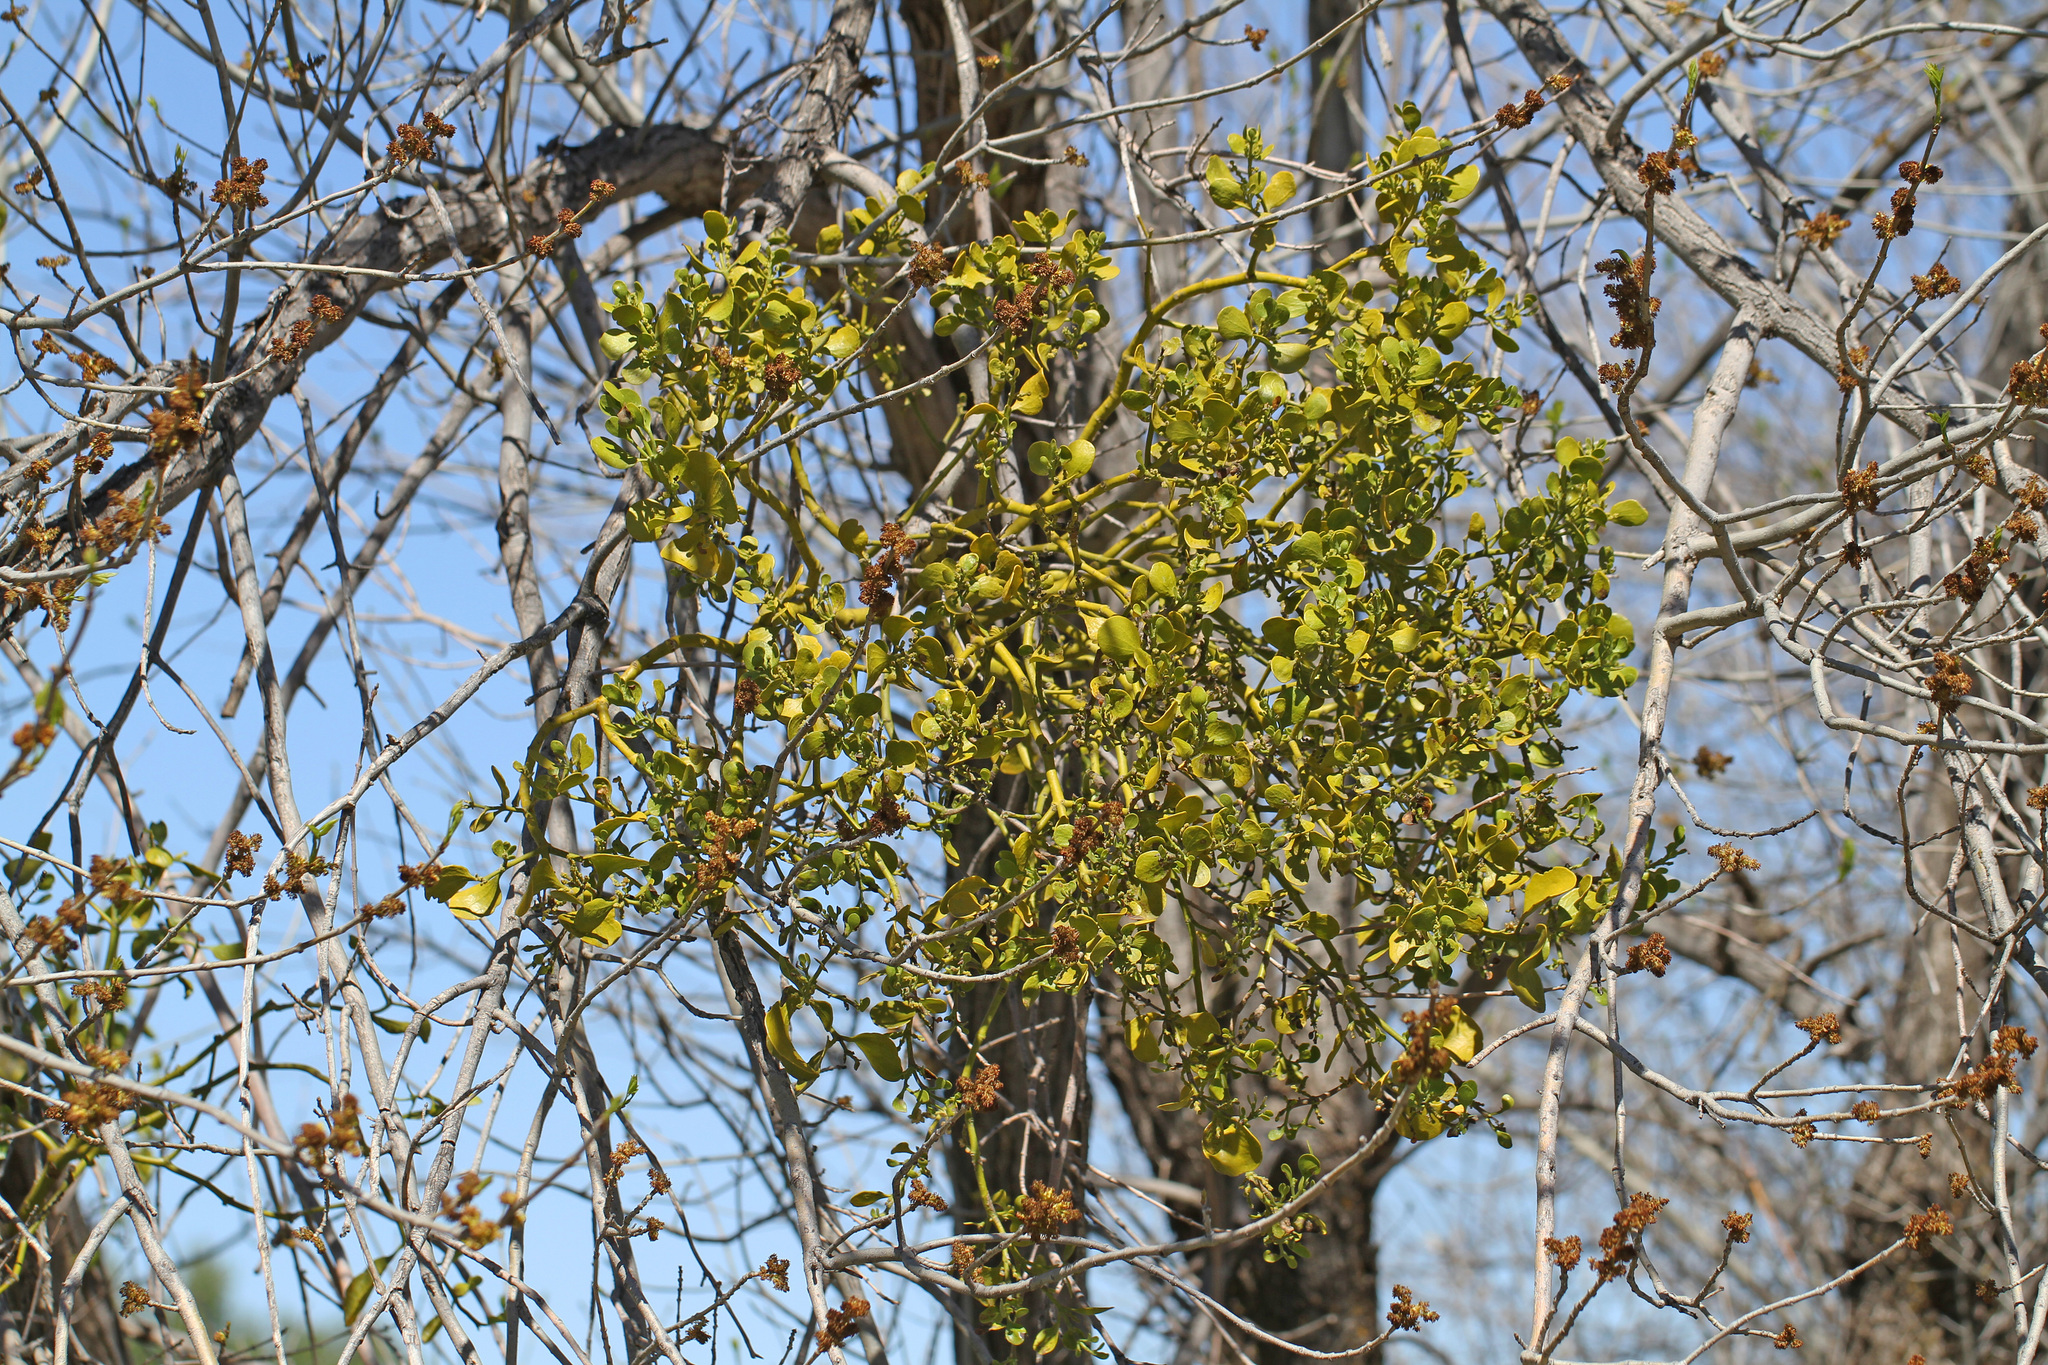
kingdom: Plantae
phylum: Tracheophyta
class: Magnoliopsida
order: Santalales
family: Viscaceae
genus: Phoradendron
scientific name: Phoradendron
